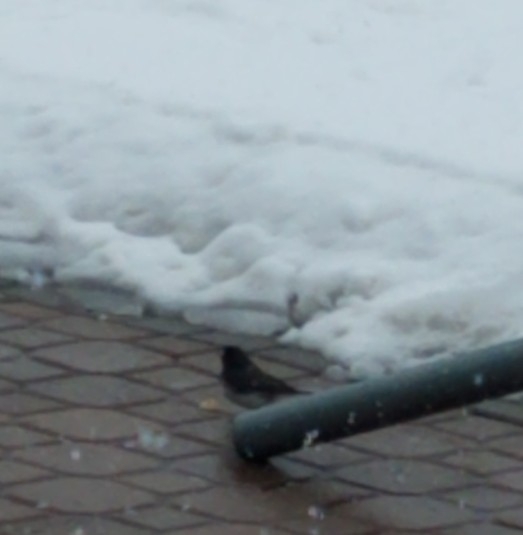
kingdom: Animalia
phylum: Chordata
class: Aves
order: Passeriformes
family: Passerellidae
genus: Junco
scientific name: Junco hyemalis
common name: Dark-eyed junco
